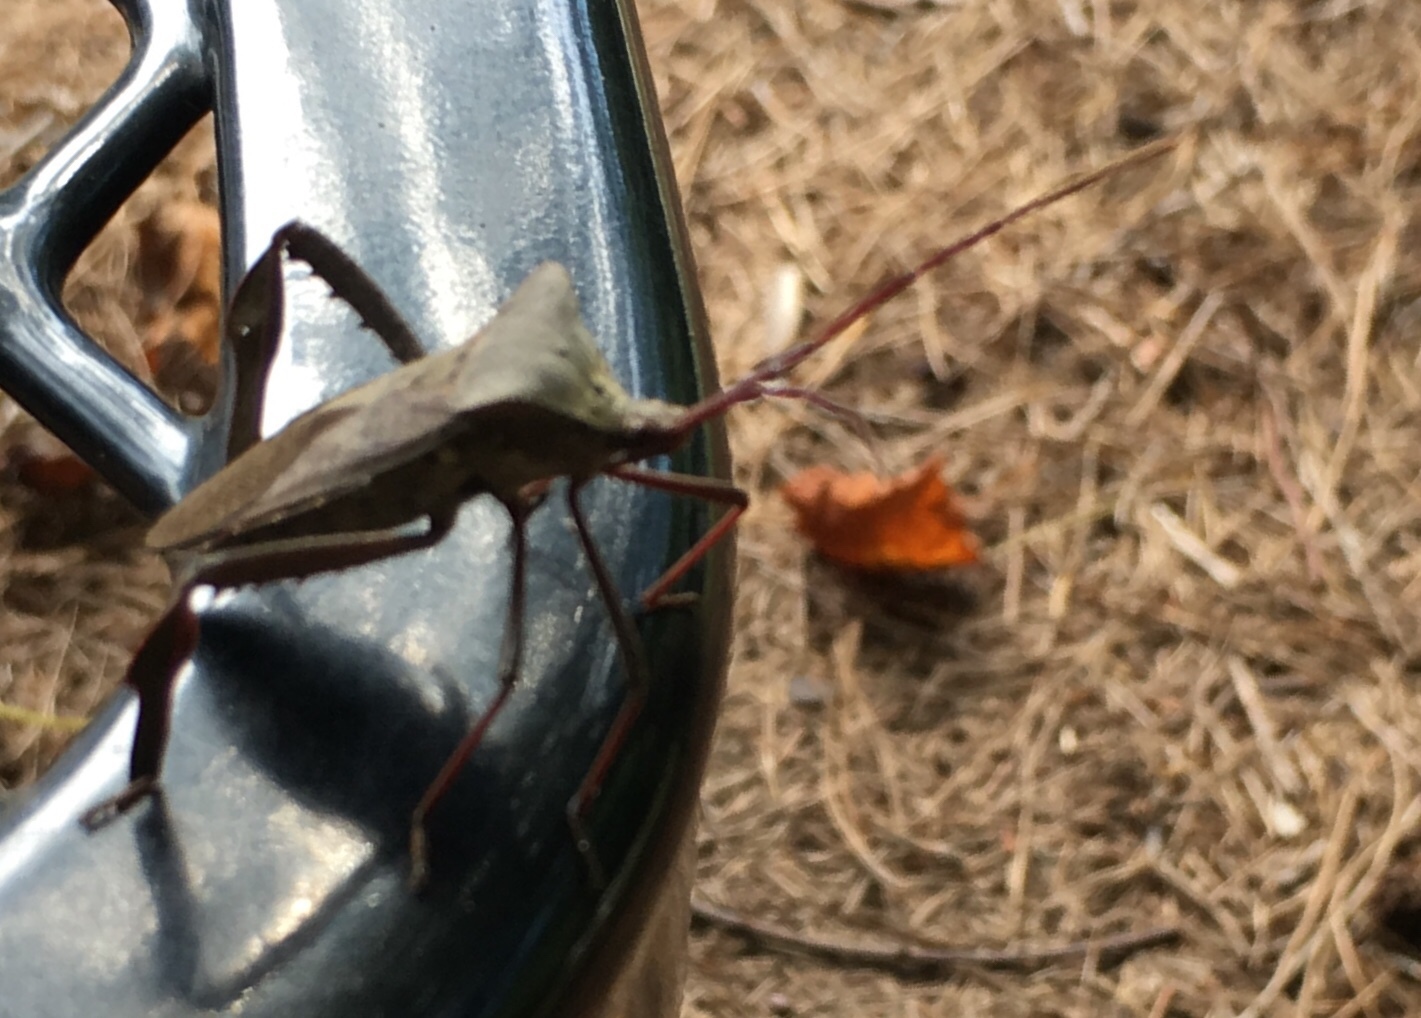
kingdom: Animalia
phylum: Arthropoda
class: Insecta
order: Hemiptera
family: Coreidae
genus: Acanthocephala
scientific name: Acanthocephala declivis
